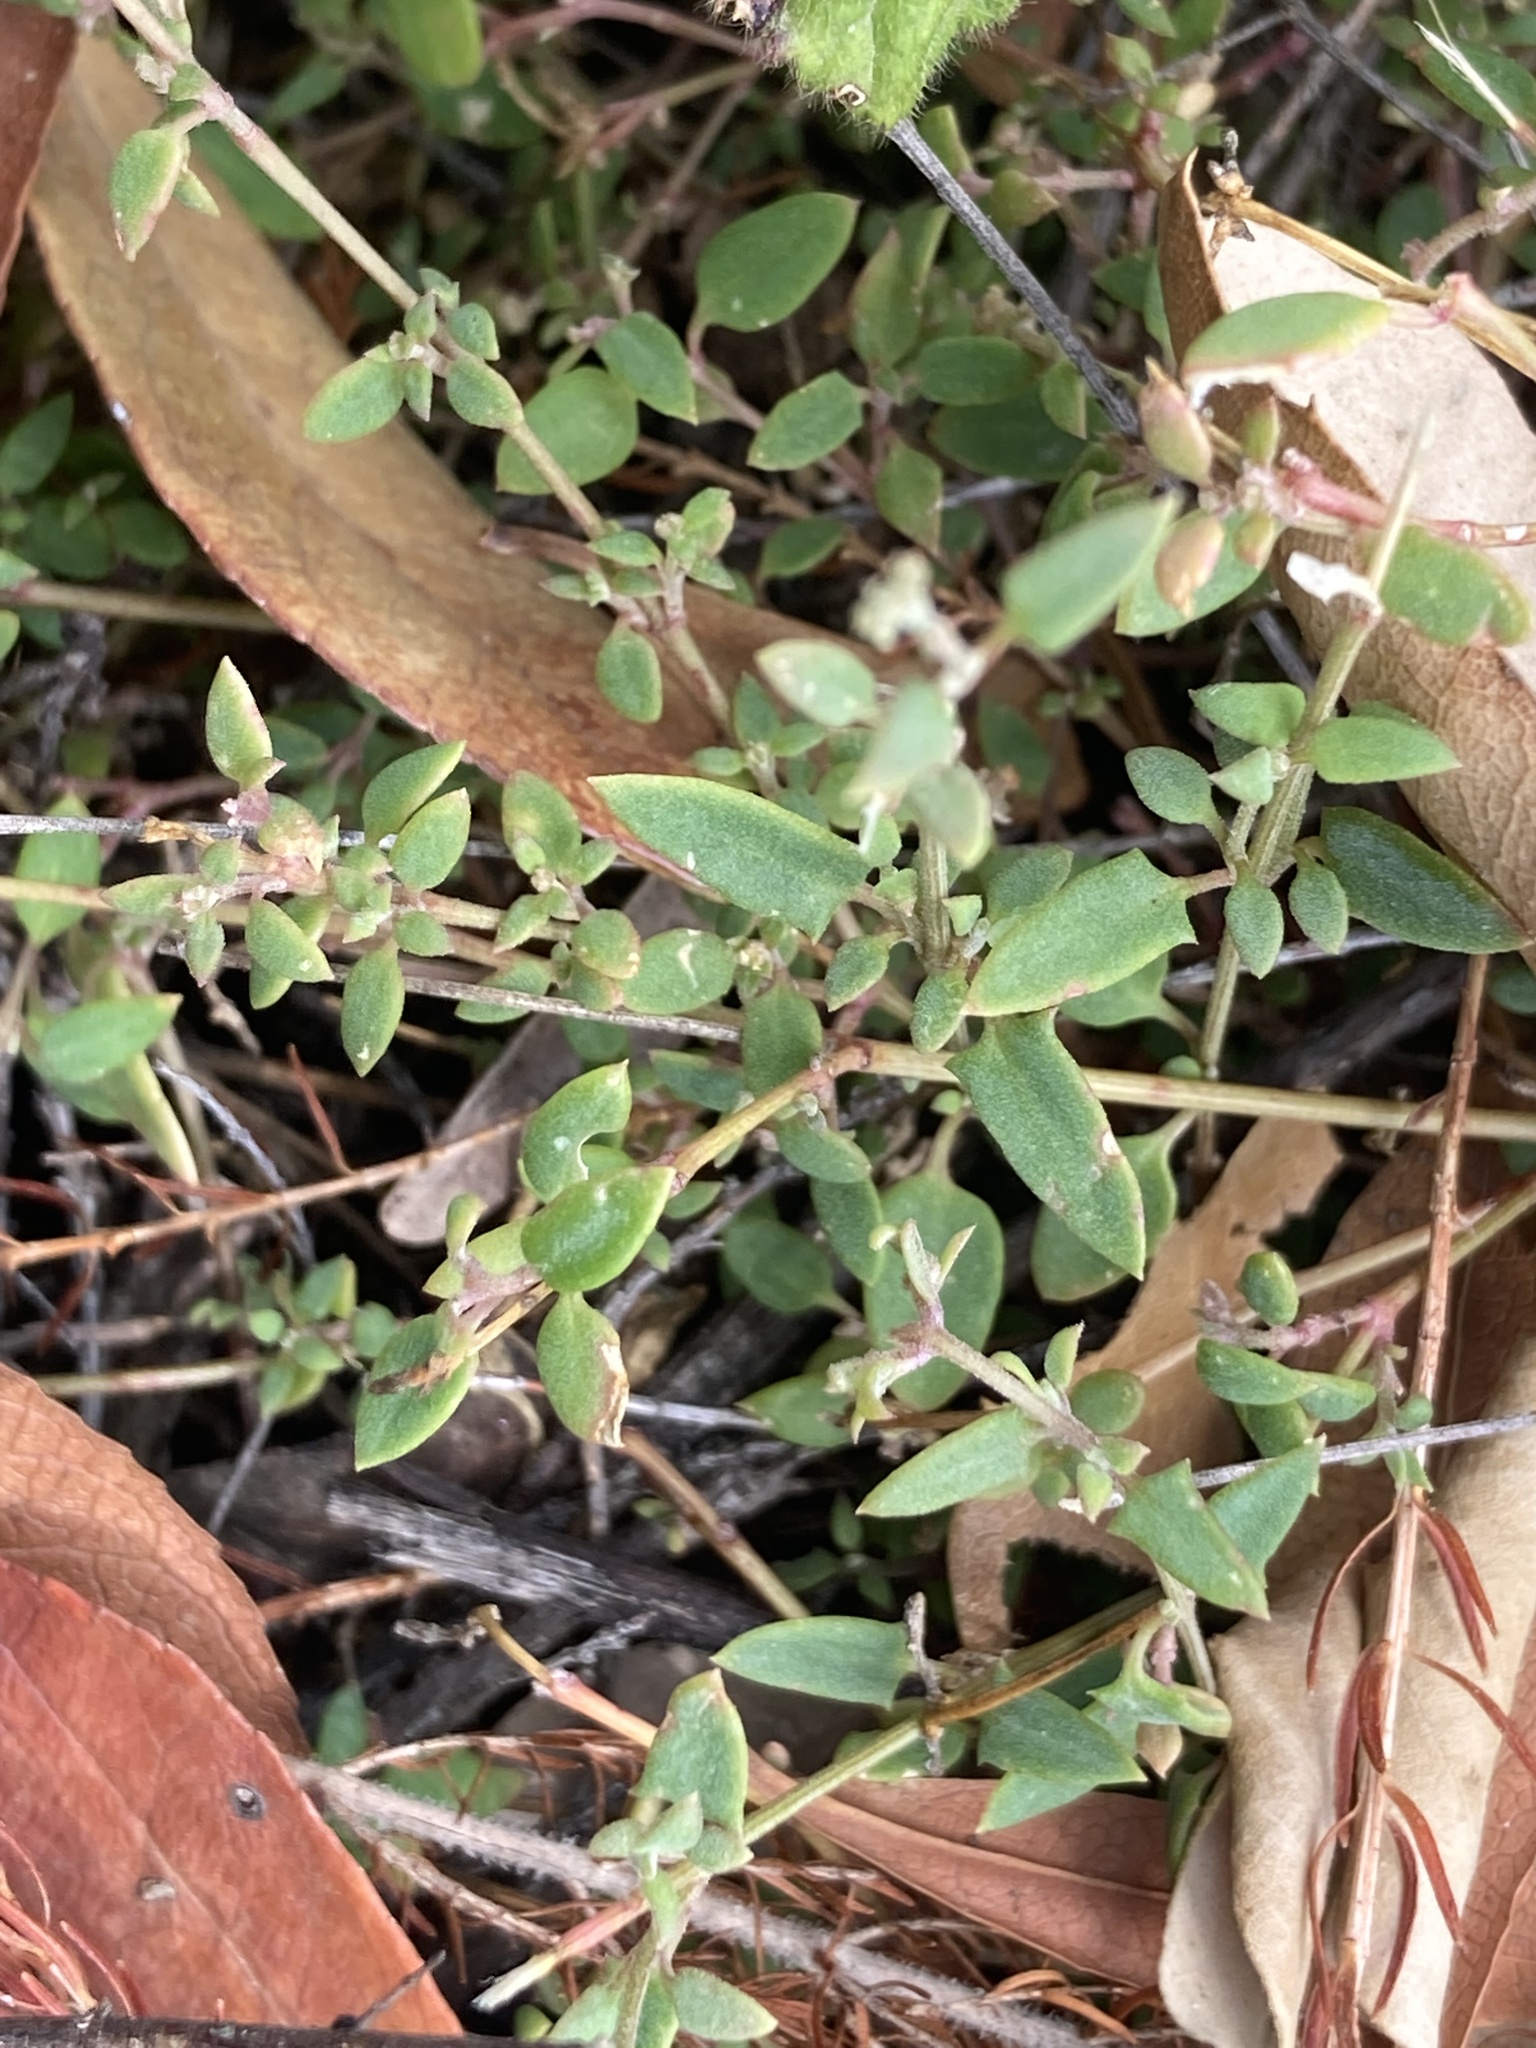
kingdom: Plantae
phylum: Tracheophyta
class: Magnoliopsida
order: Caryophyllales
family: Amaranthaceae
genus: Chenopodium
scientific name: Chenopodium nutans
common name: Climbing-saltbush
